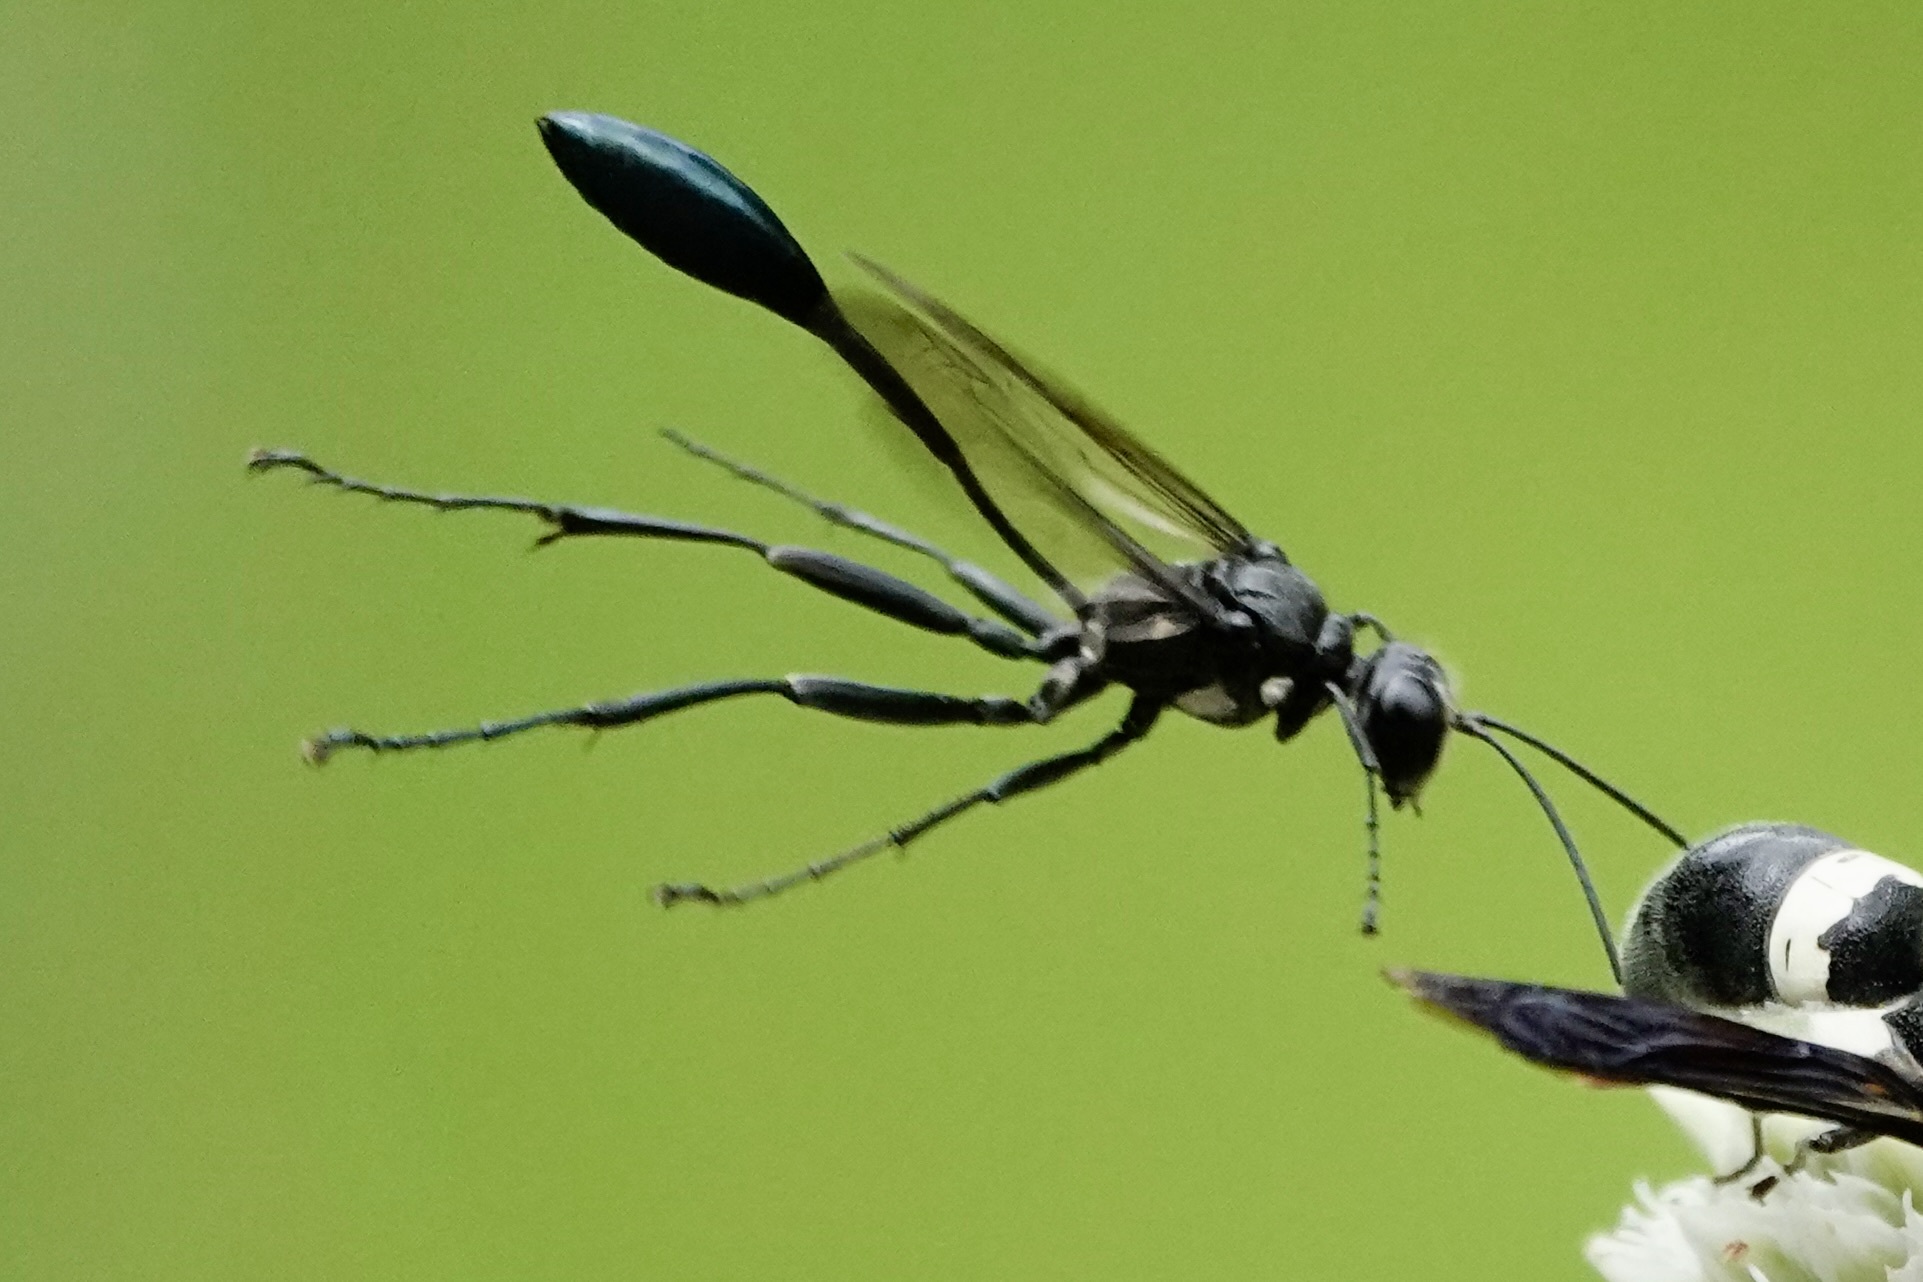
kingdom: Animalia
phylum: Arthropoda
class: Insecta
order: Hymenoptera
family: Sphecidae
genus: Eremnophila
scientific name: Eremnophila aureonotata
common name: Gold-marked thread-waisted wasp
